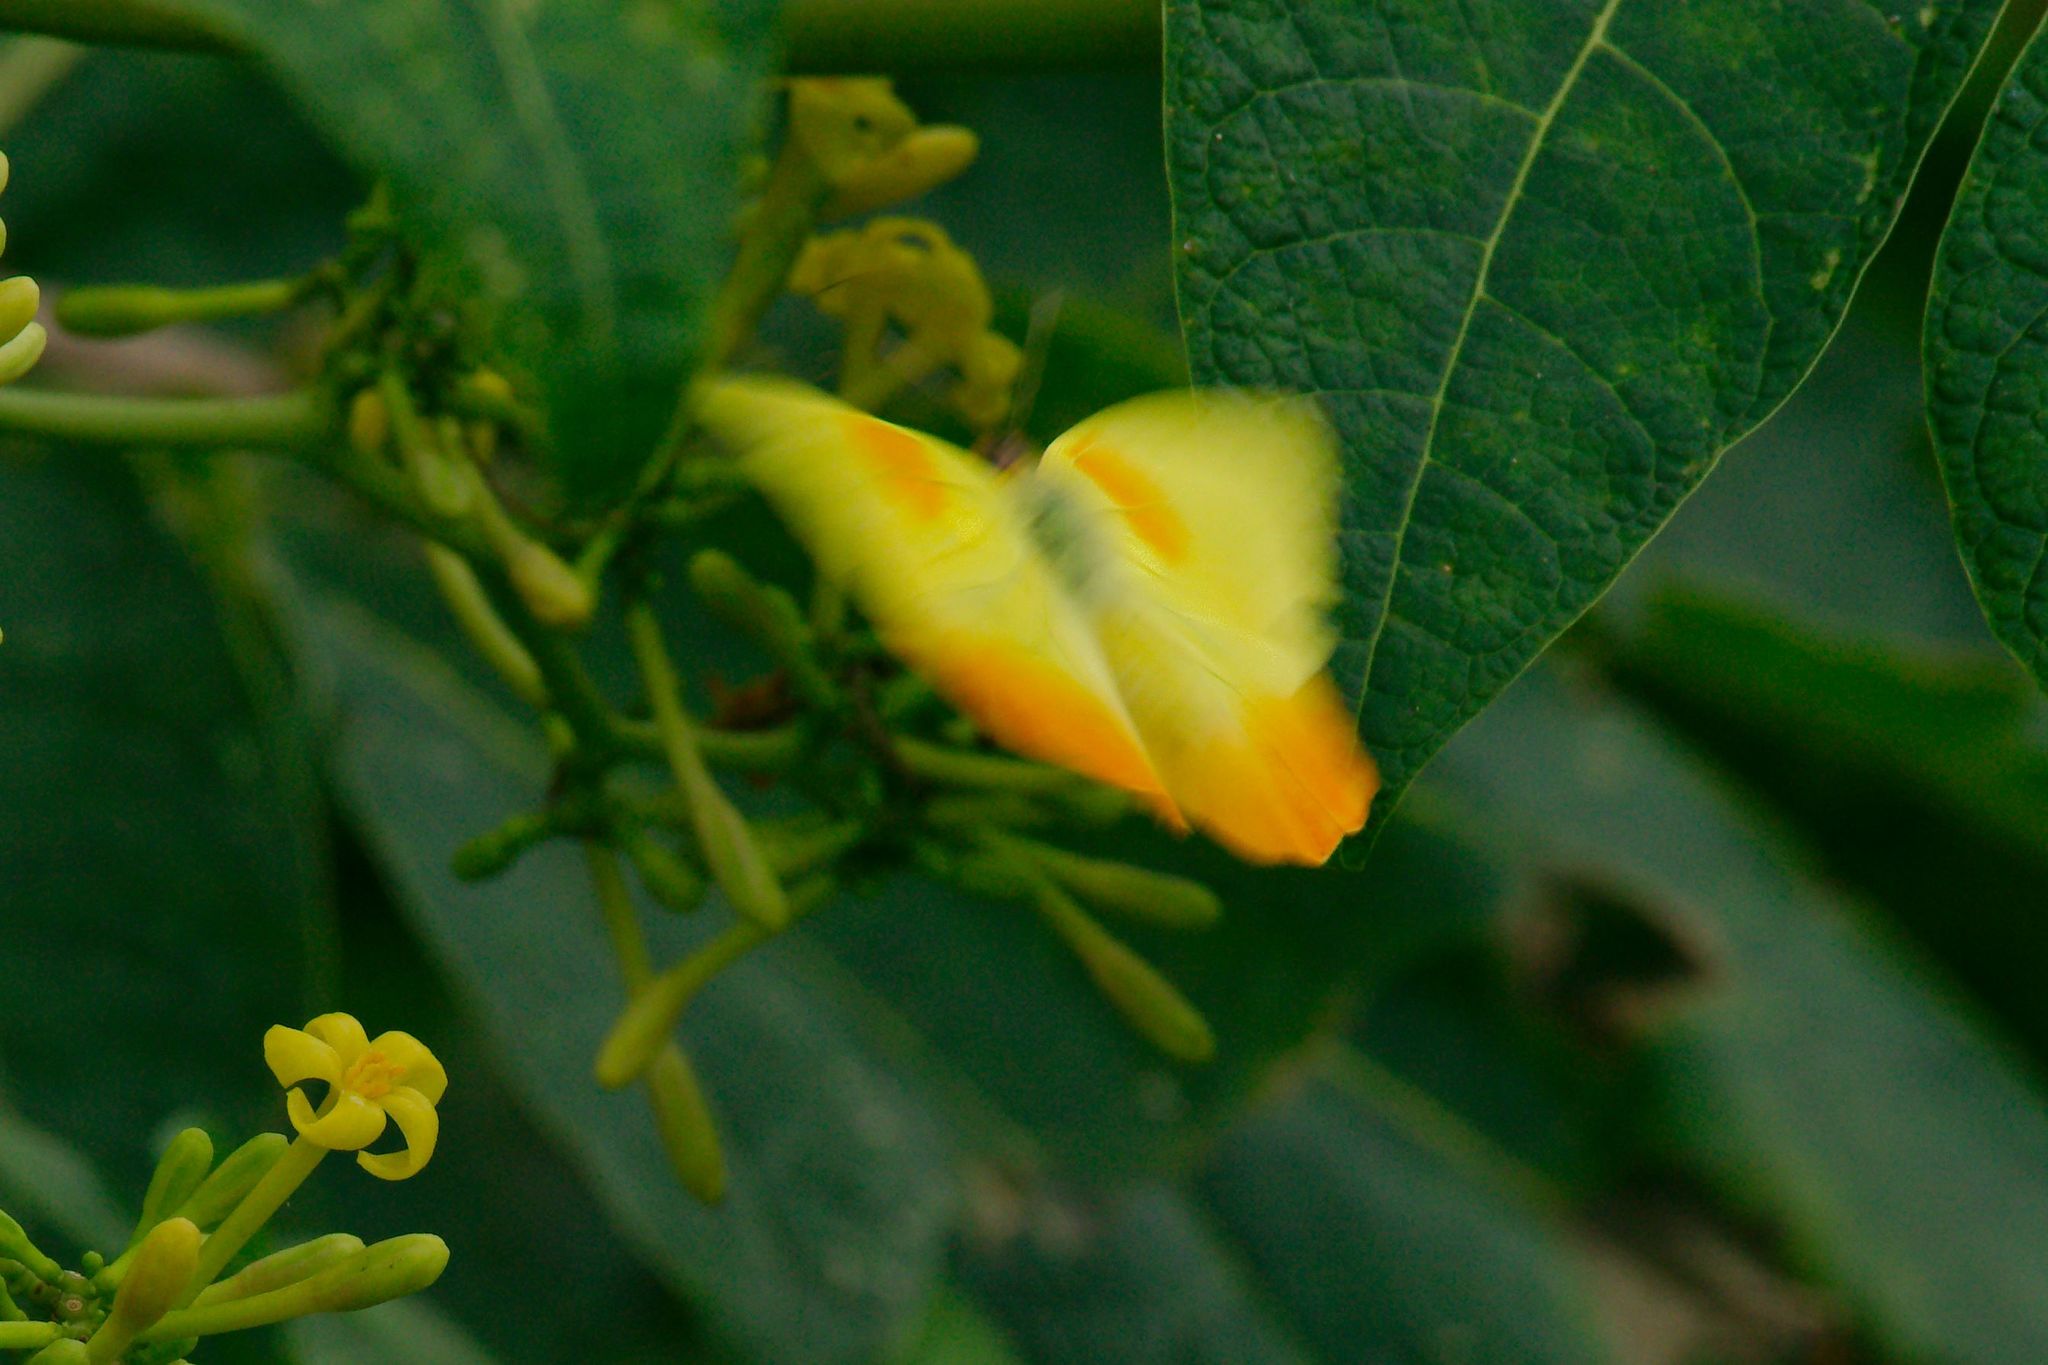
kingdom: Animalia
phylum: Arthropoda
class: Insecta
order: Lepidoptera
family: Pieridae
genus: Phoebis
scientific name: Phoebis philea
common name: Orange-barred giant sulphur
